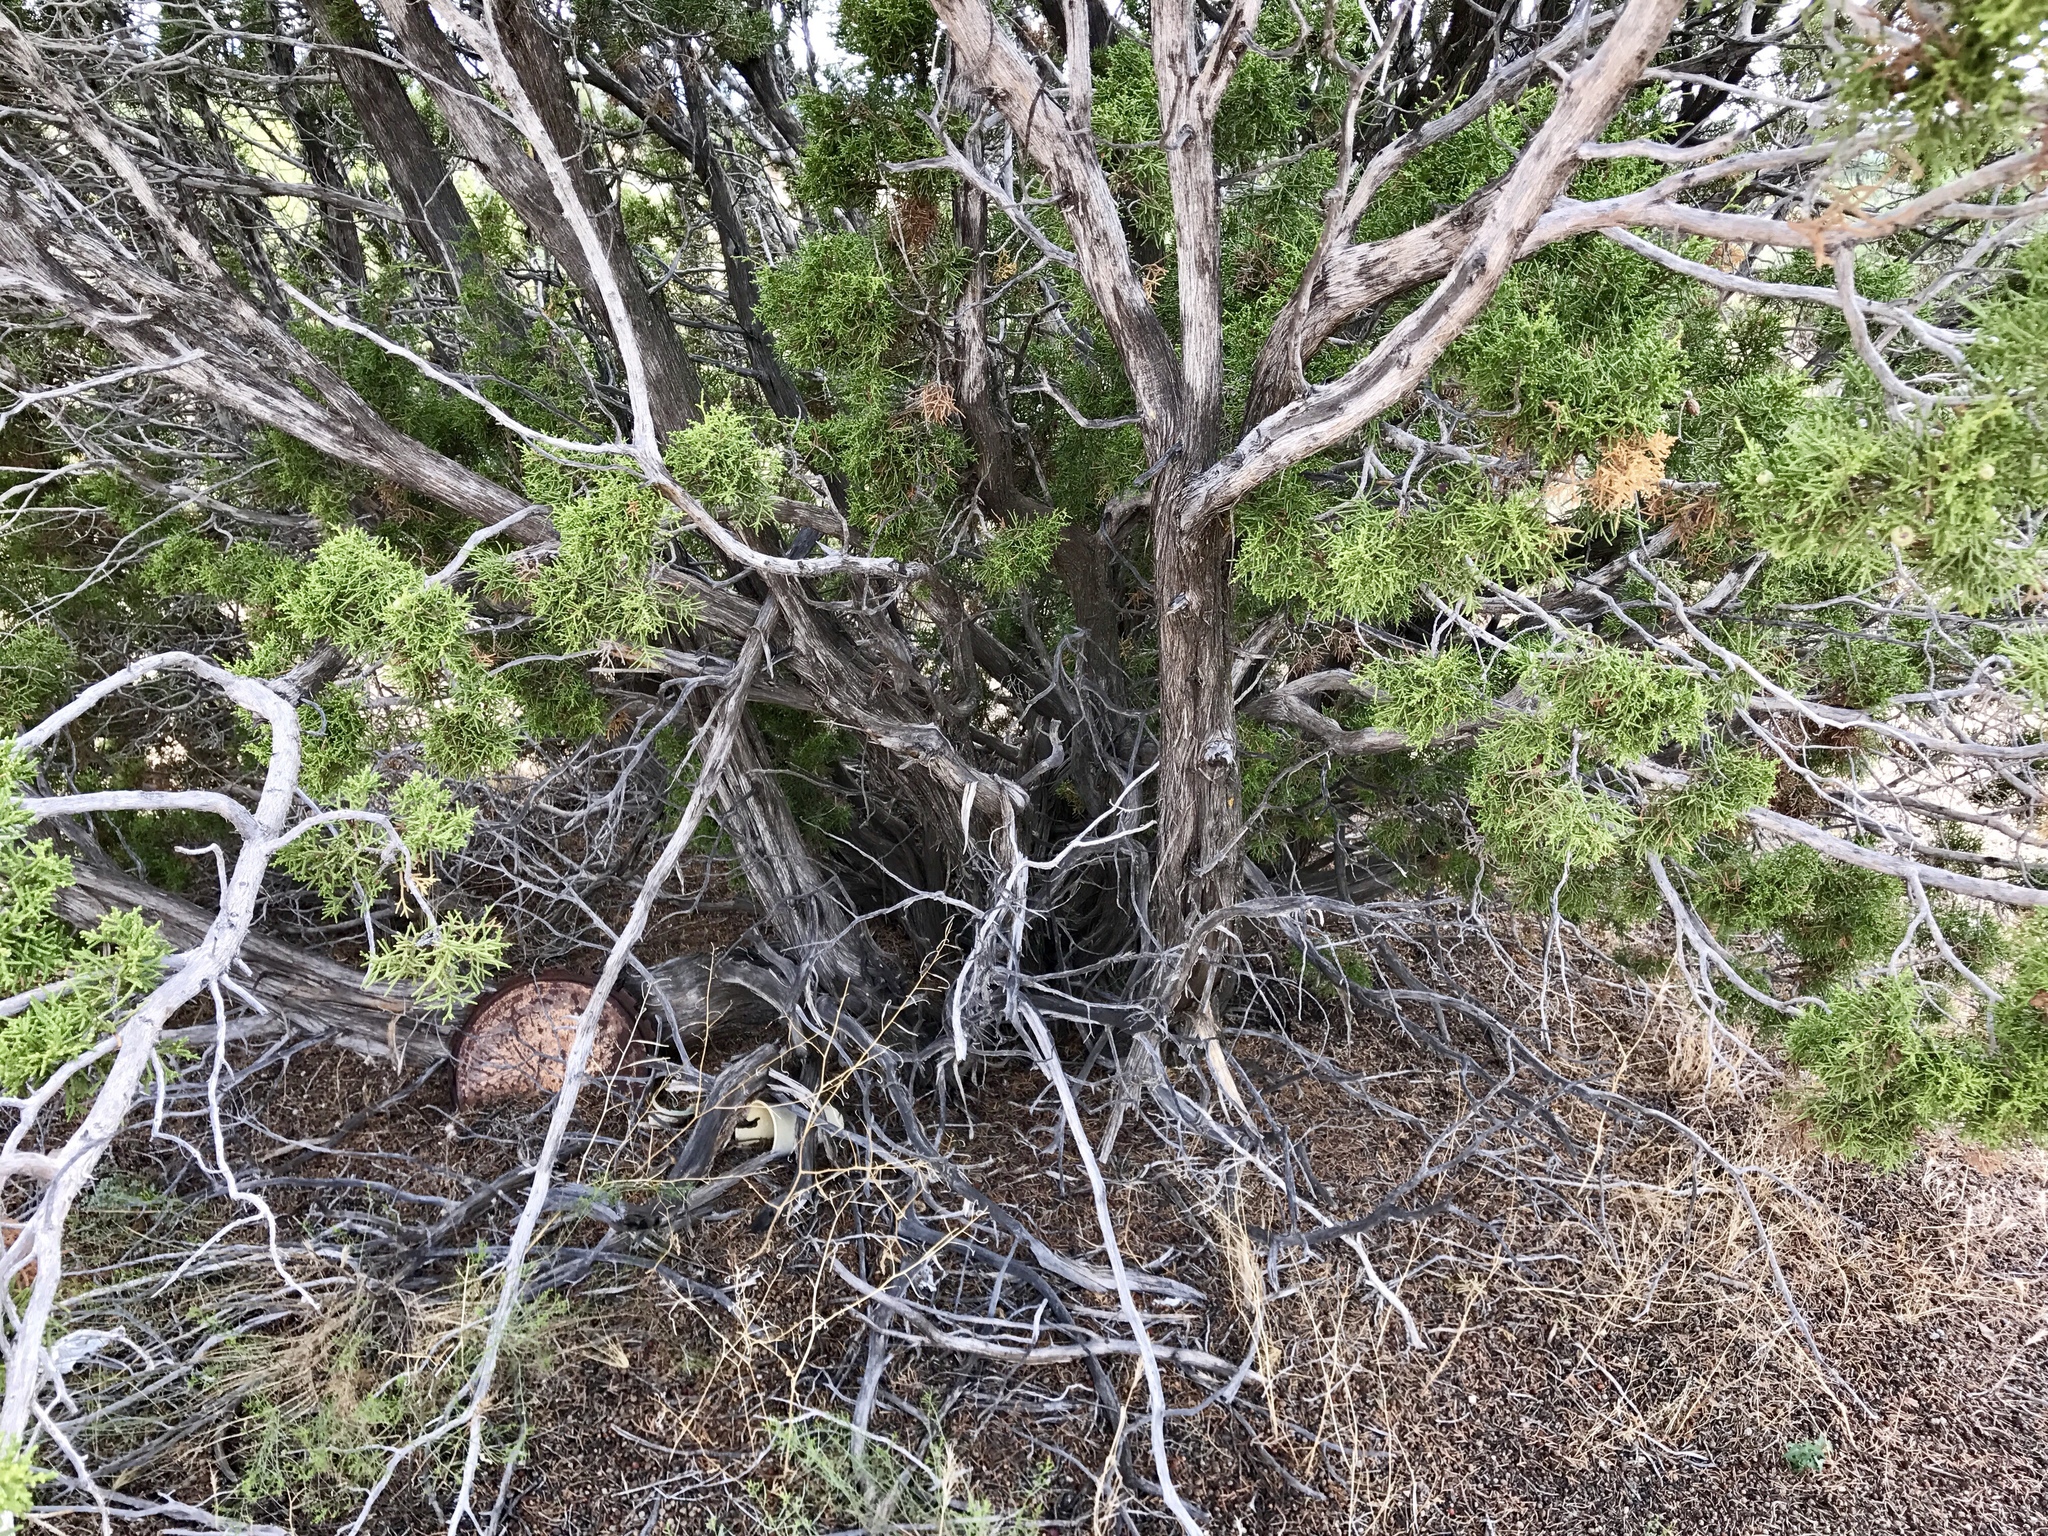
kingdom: Plantae
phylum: Tracheophyta
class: Pinopsida
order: Pinales
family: Cupressaceae
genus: Juniperus
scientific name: Juniperus californica
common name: California juniper
